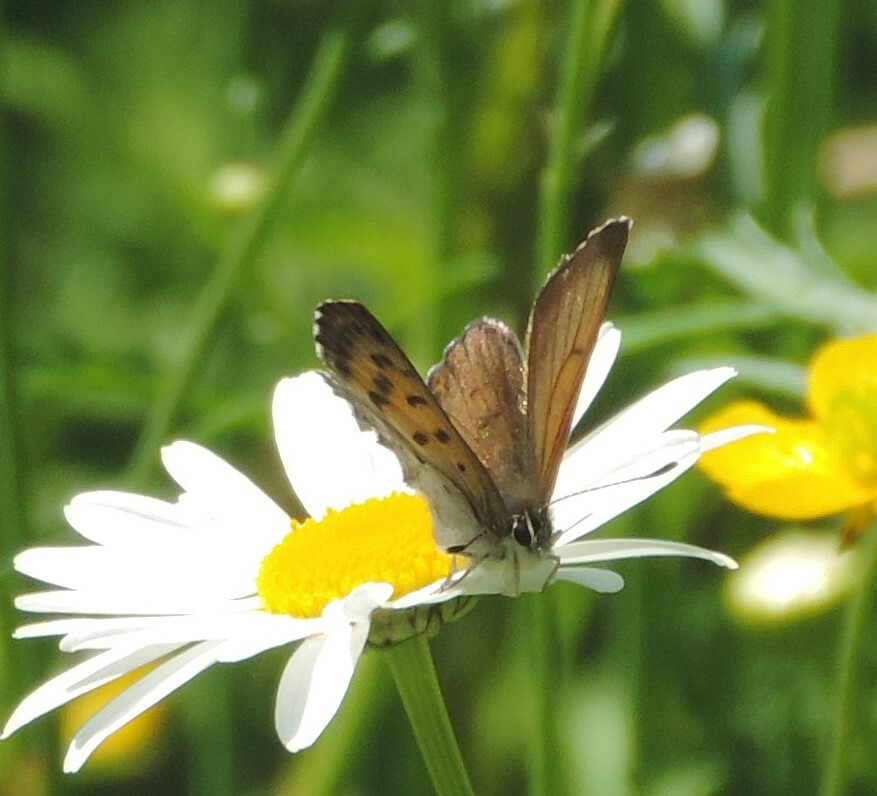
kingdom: Animalia
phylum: Arthropoda
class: Insecta
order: Lepidoptera
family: Lycaenidae
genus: Tharsalea
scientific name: Tharsalea mariposa
